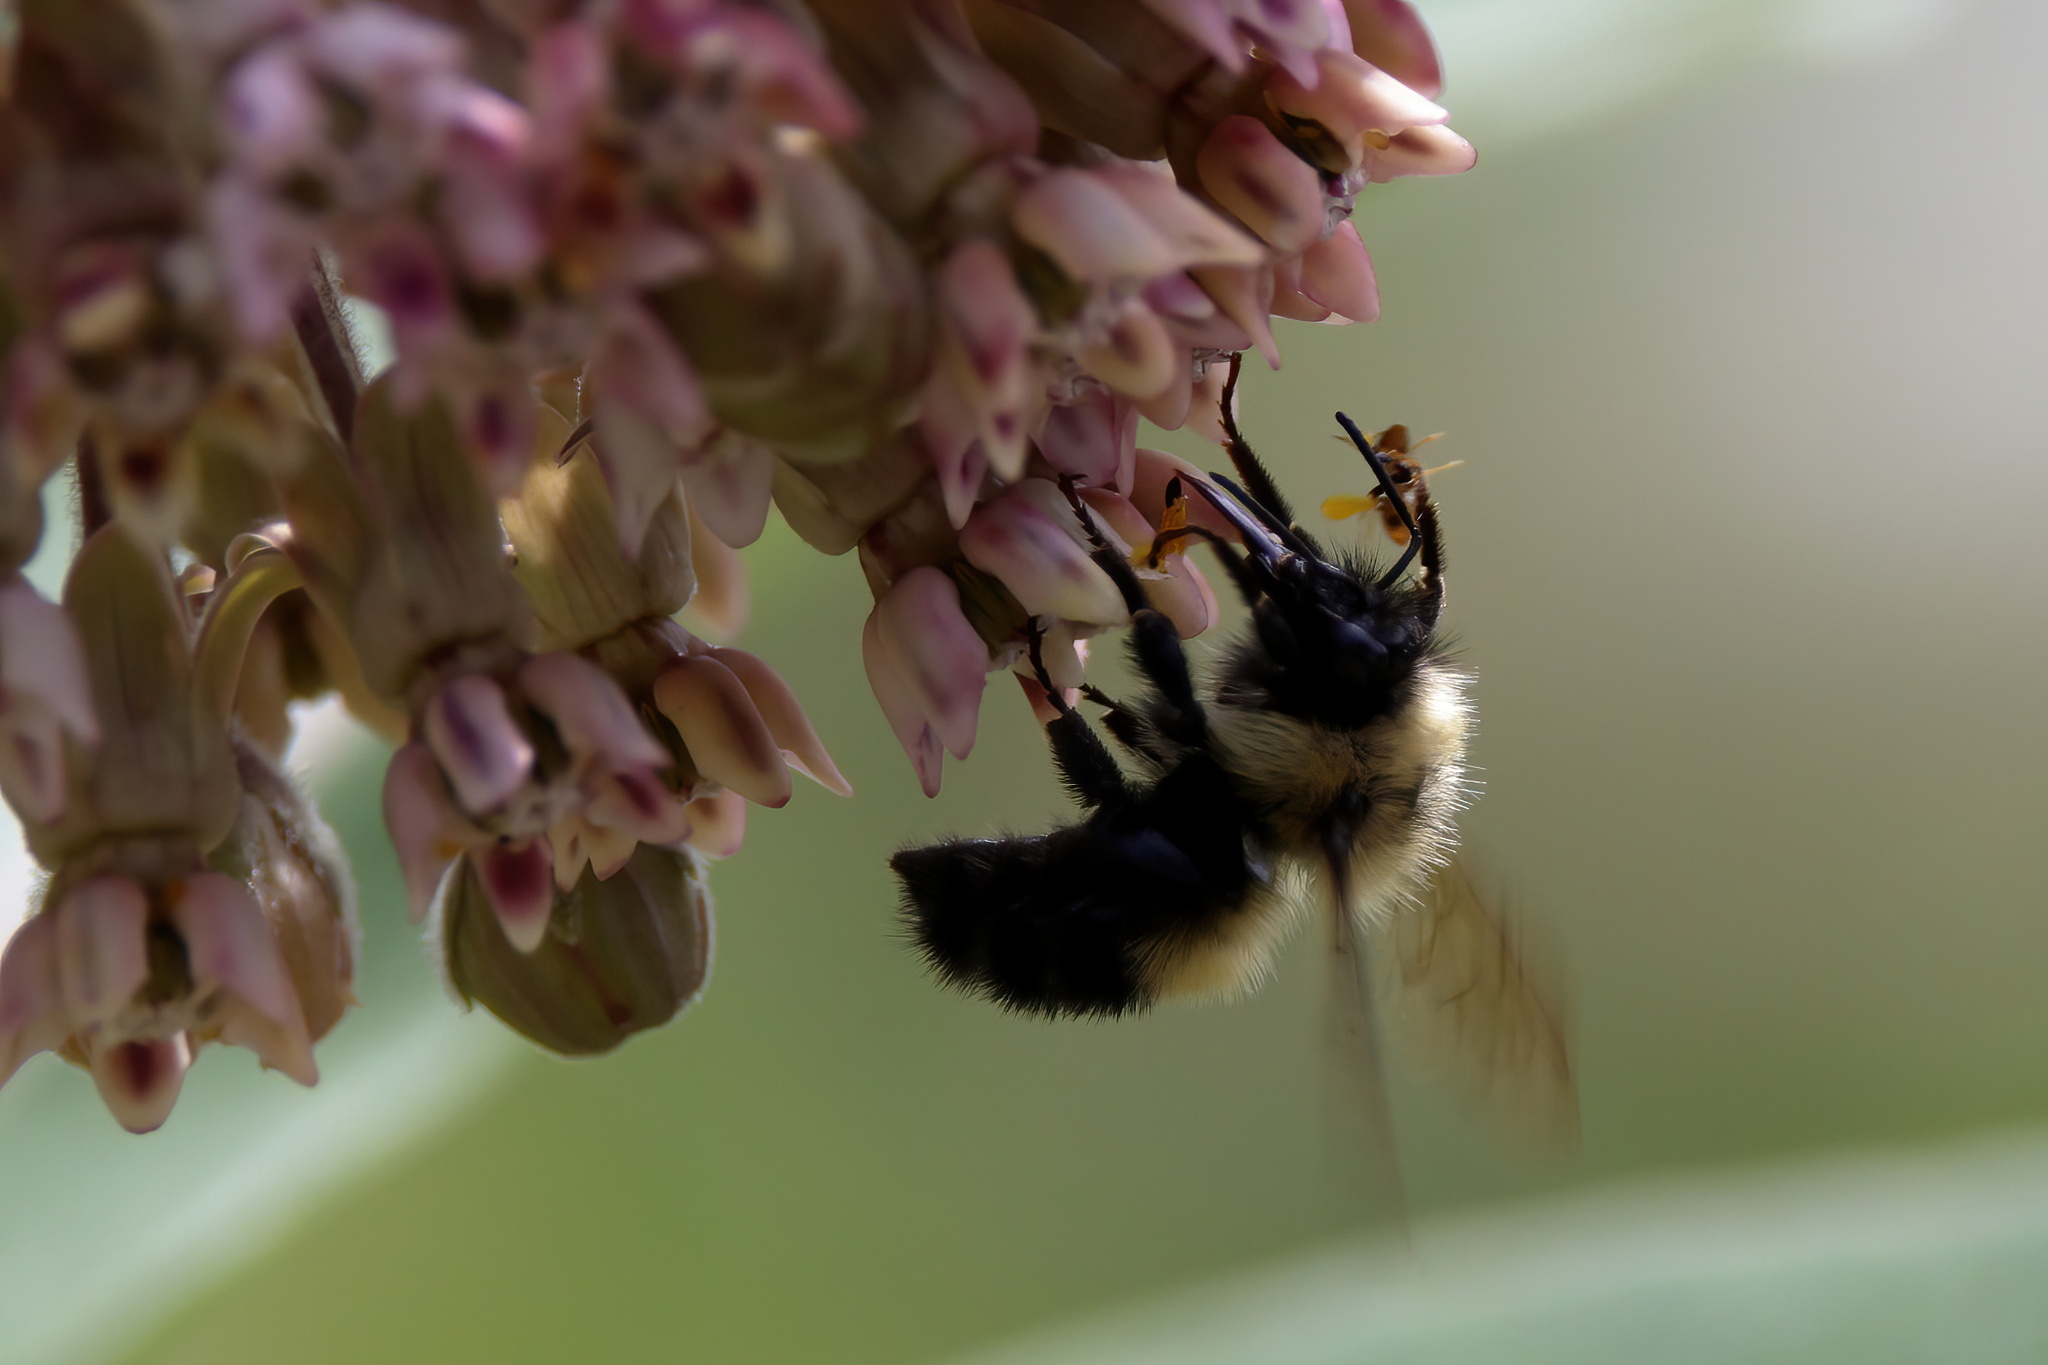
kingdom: Animalia
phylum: Arthropoda
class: Insecta
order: Hymenoptera
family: Apidae
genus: Bombus
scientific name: Bombus vagans
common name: Half-black bumble bee
